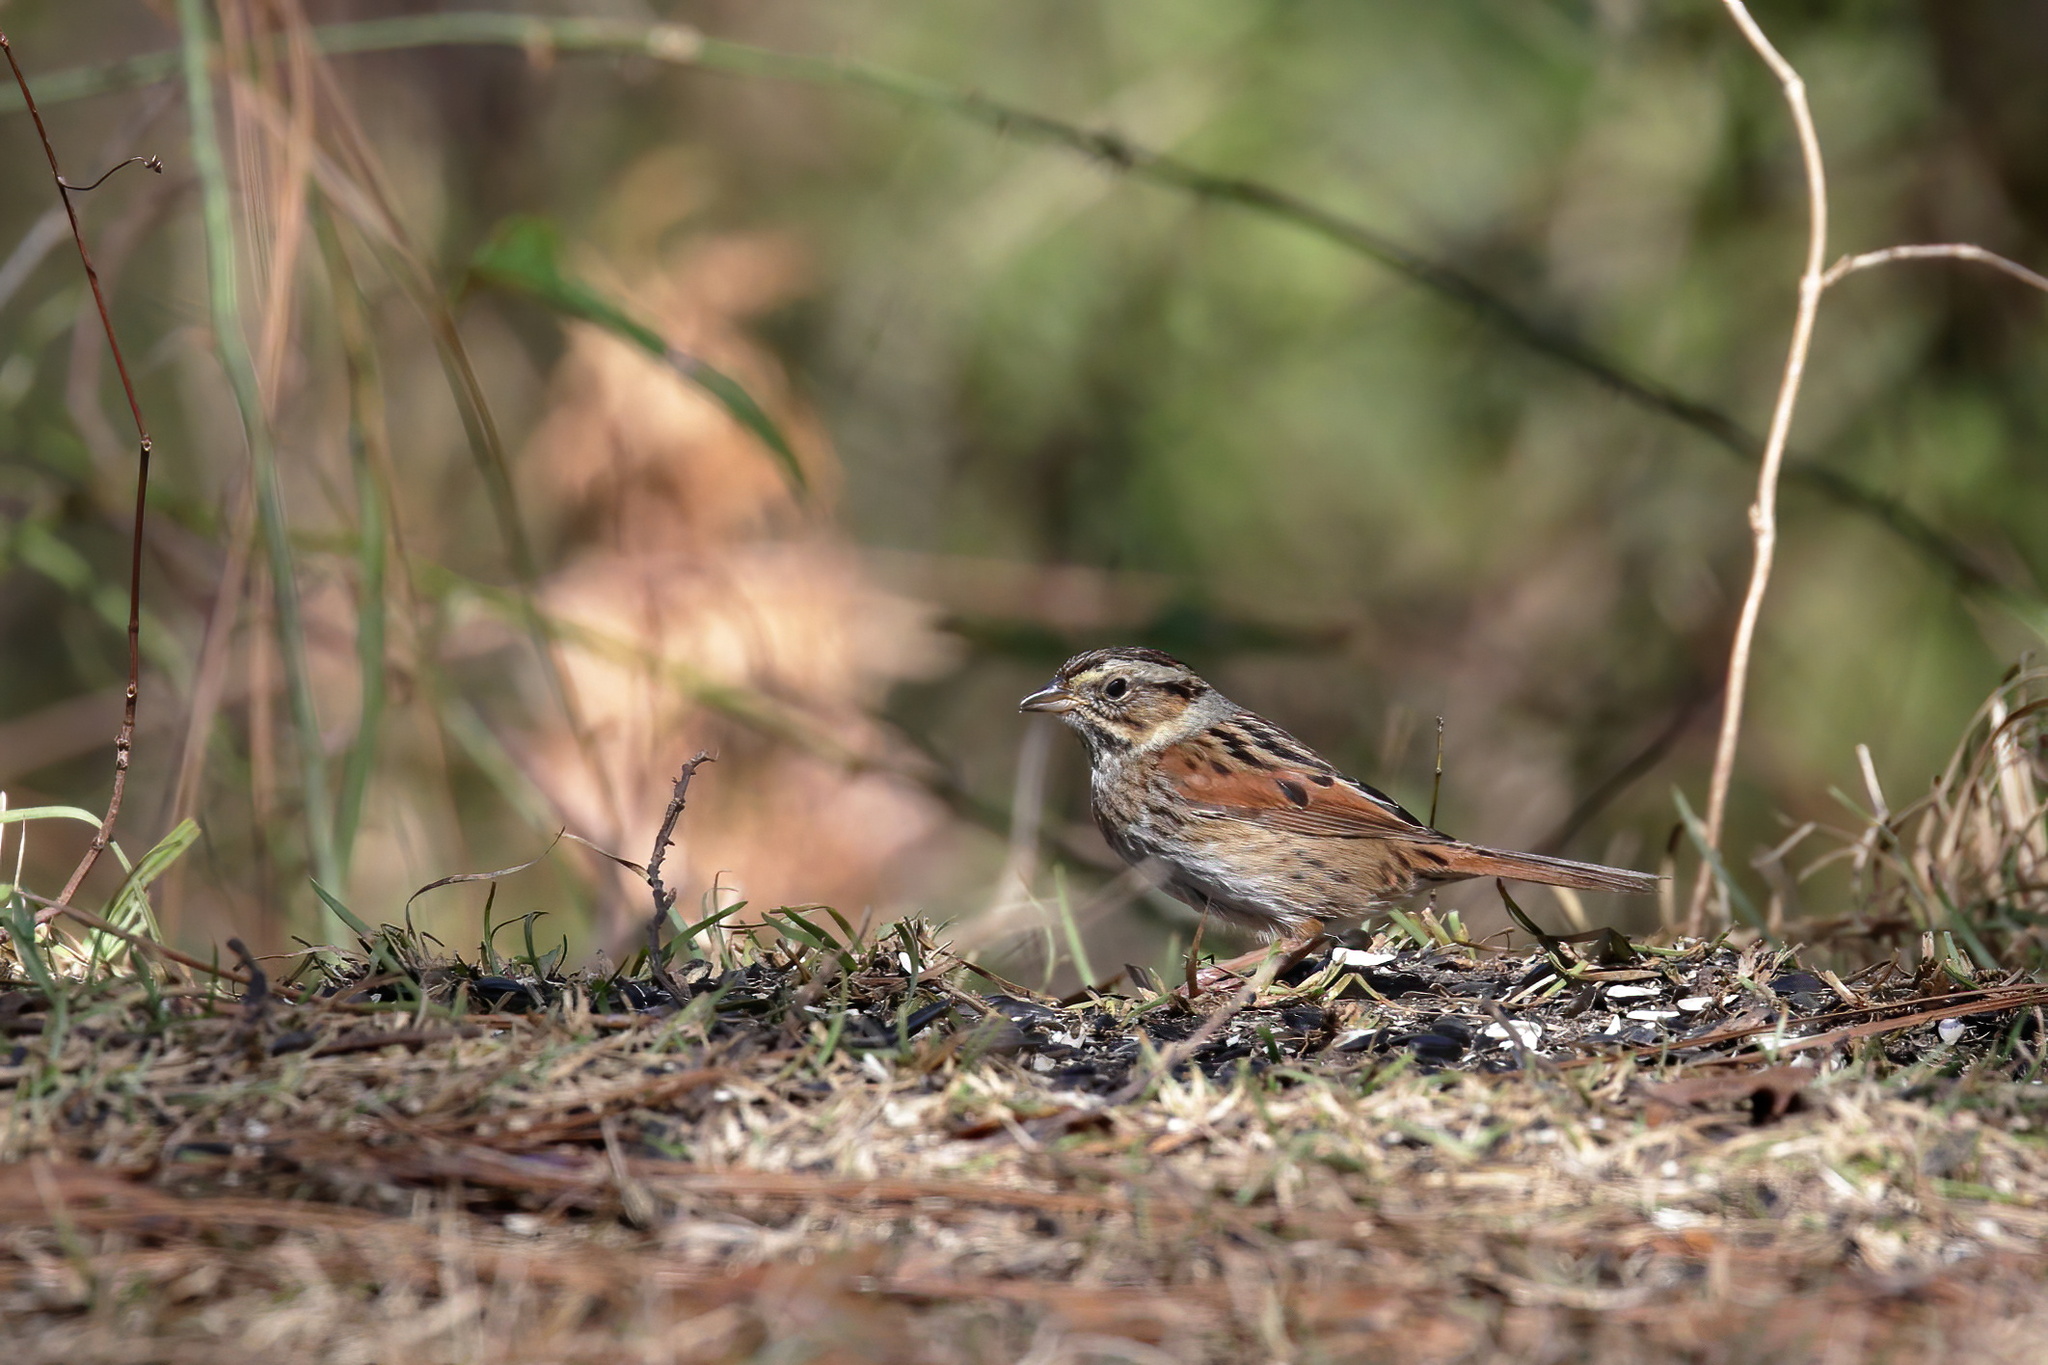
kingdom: Animalia
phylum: Chordata
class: Aves
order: Passeriformes
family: Passerellidae
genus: Melospiza
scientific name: Melospiza georgiana
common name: Swamp sparrow
